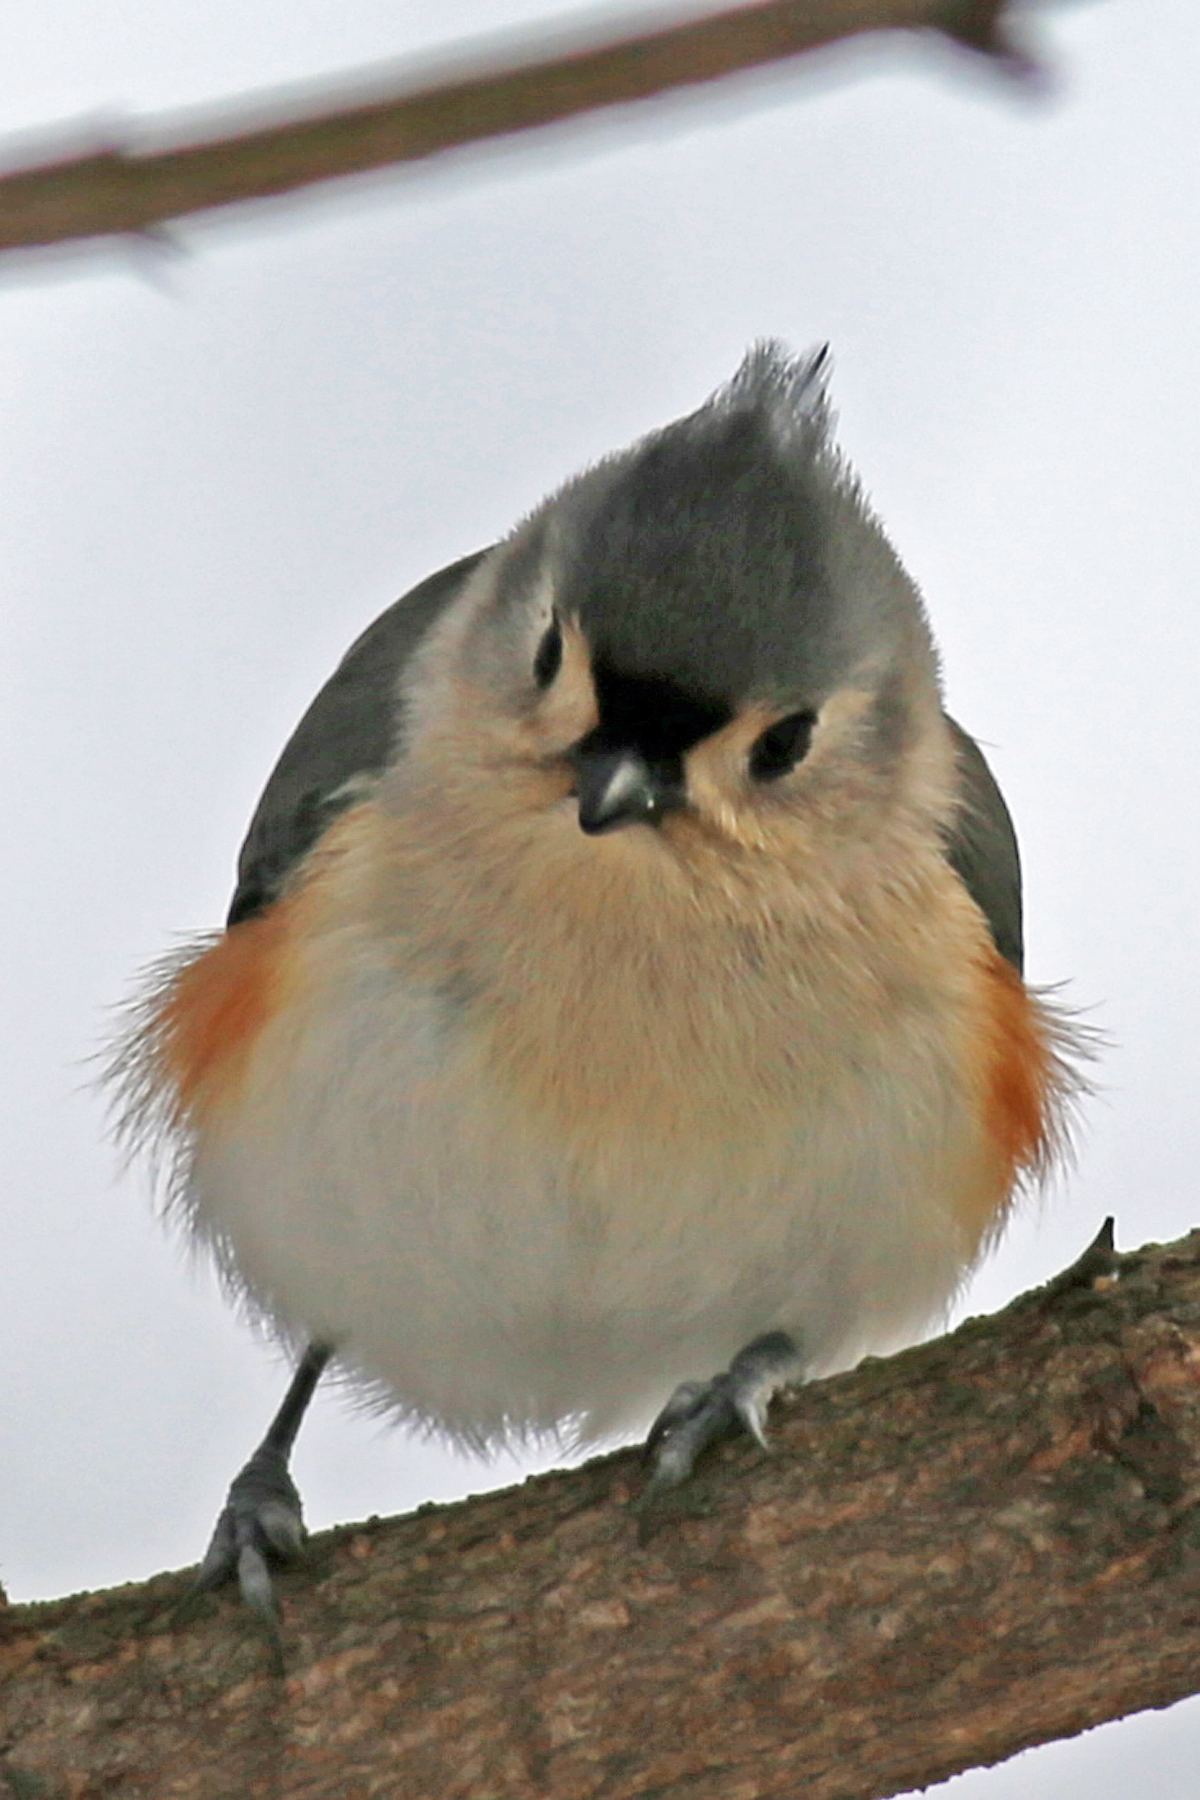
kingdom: Animalia
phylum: Chordata
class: Aves
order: Passeriformes
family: Paridae
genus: Baeolophus
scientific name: Baeolophus bicolor
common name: Tufted titmouse
